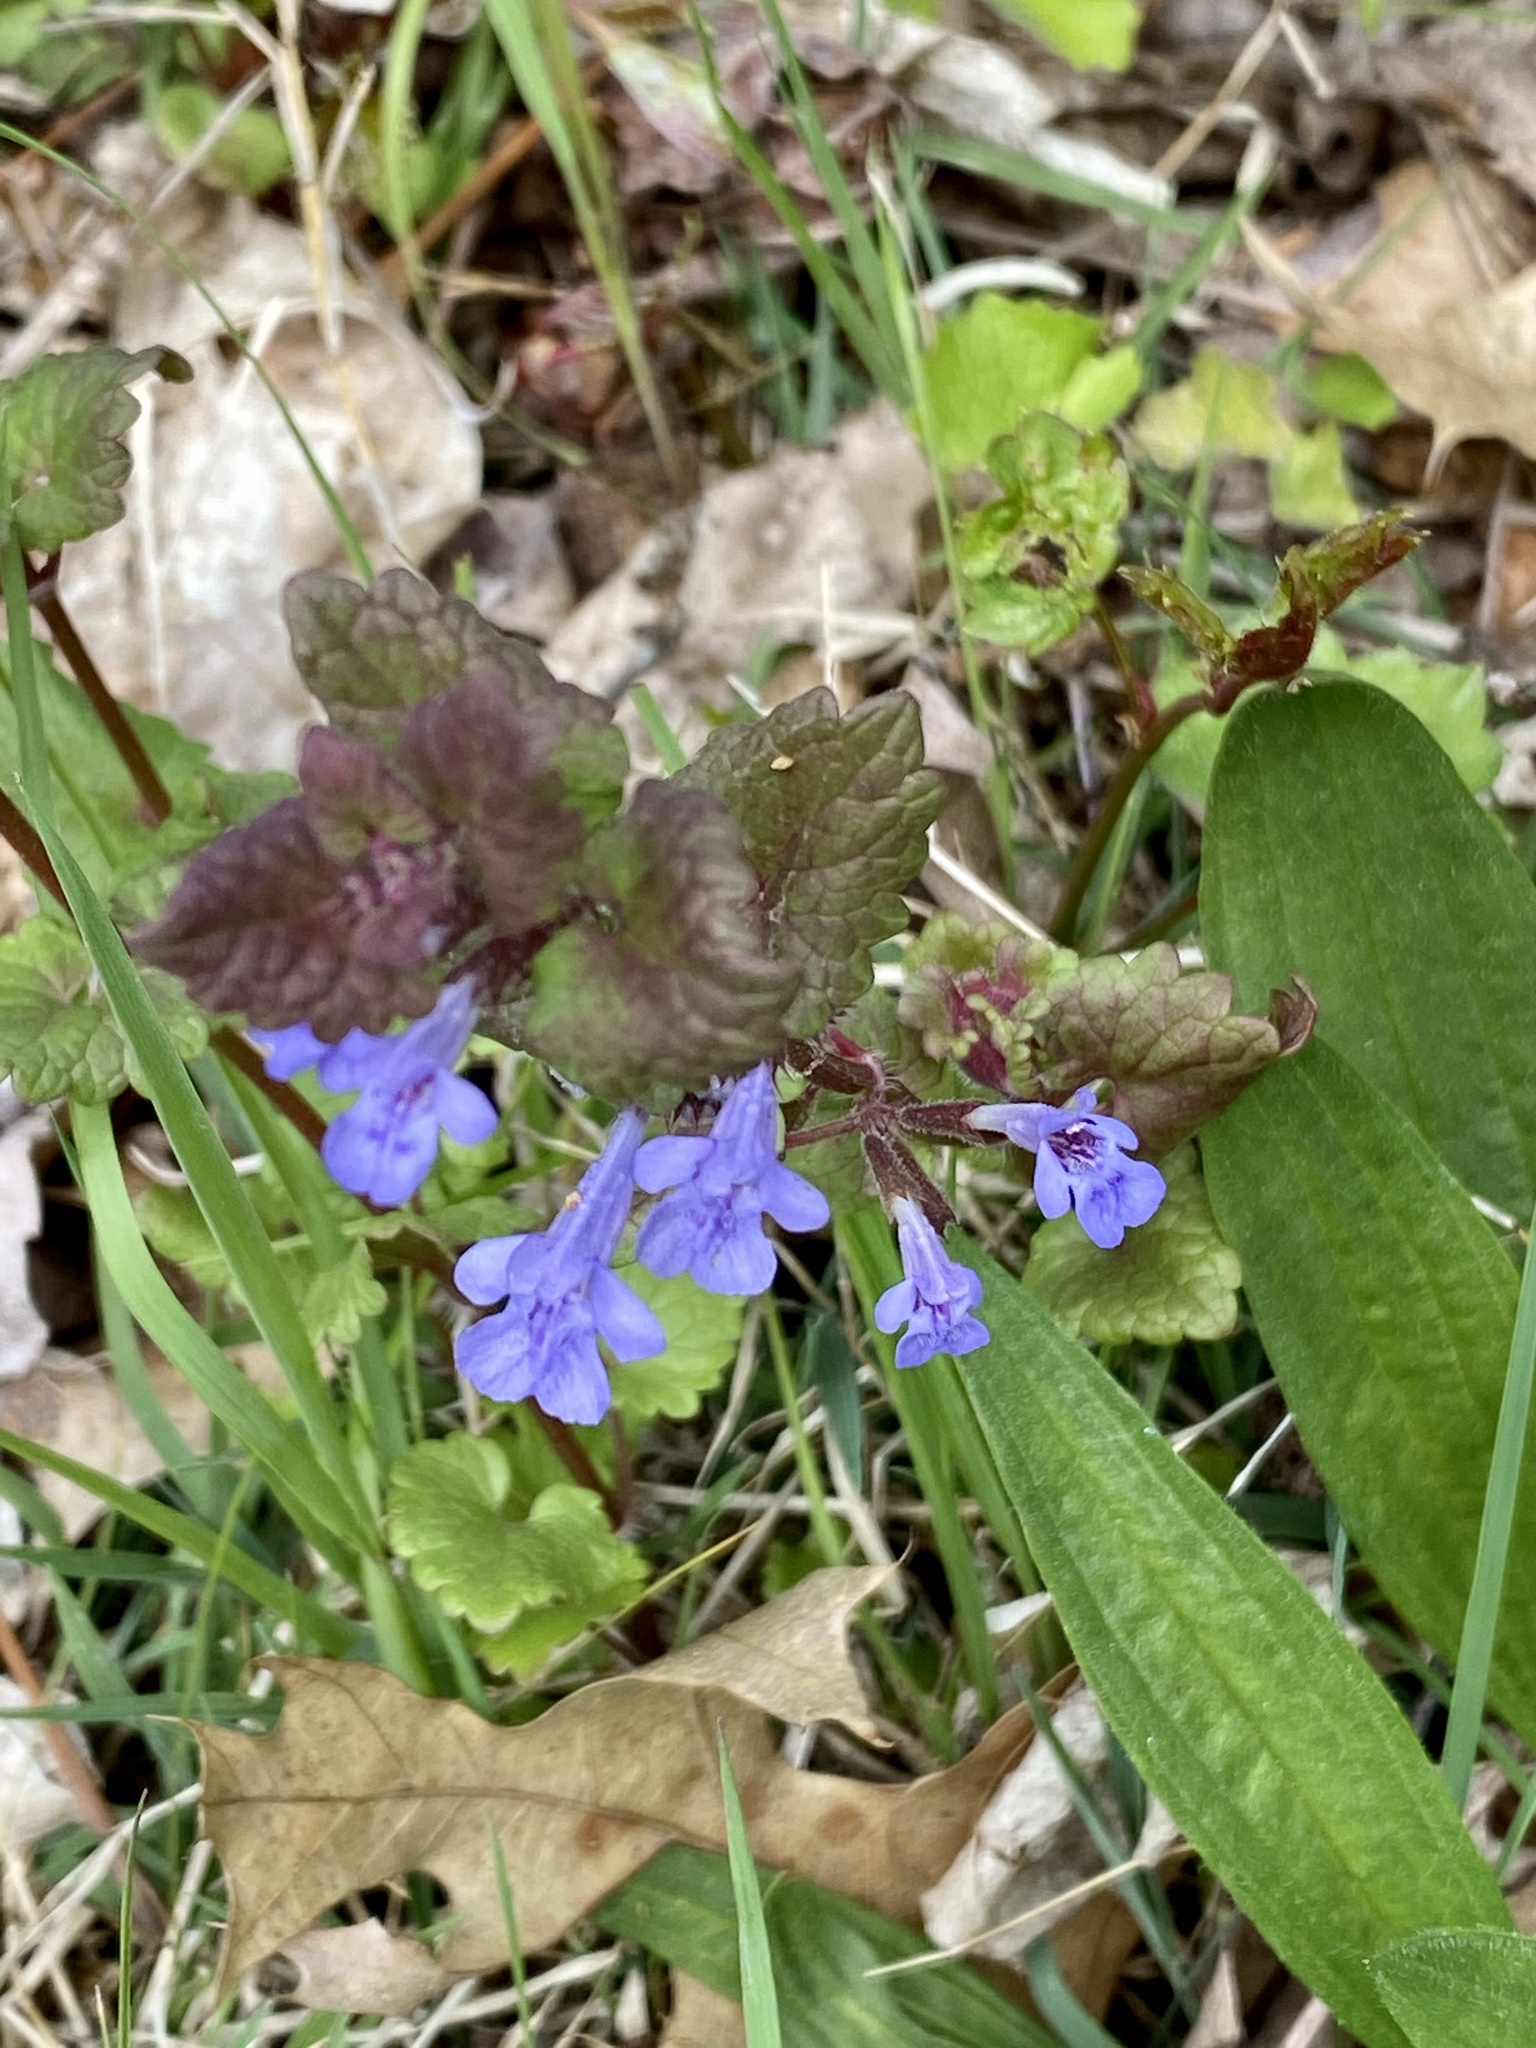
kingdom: Plantae
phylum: Tracheophyta
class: Magnoliopsida
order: Lamiales
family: Lamiaceae
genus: Glechoma
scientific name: Glechoma hederacea
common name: Ground ivy
